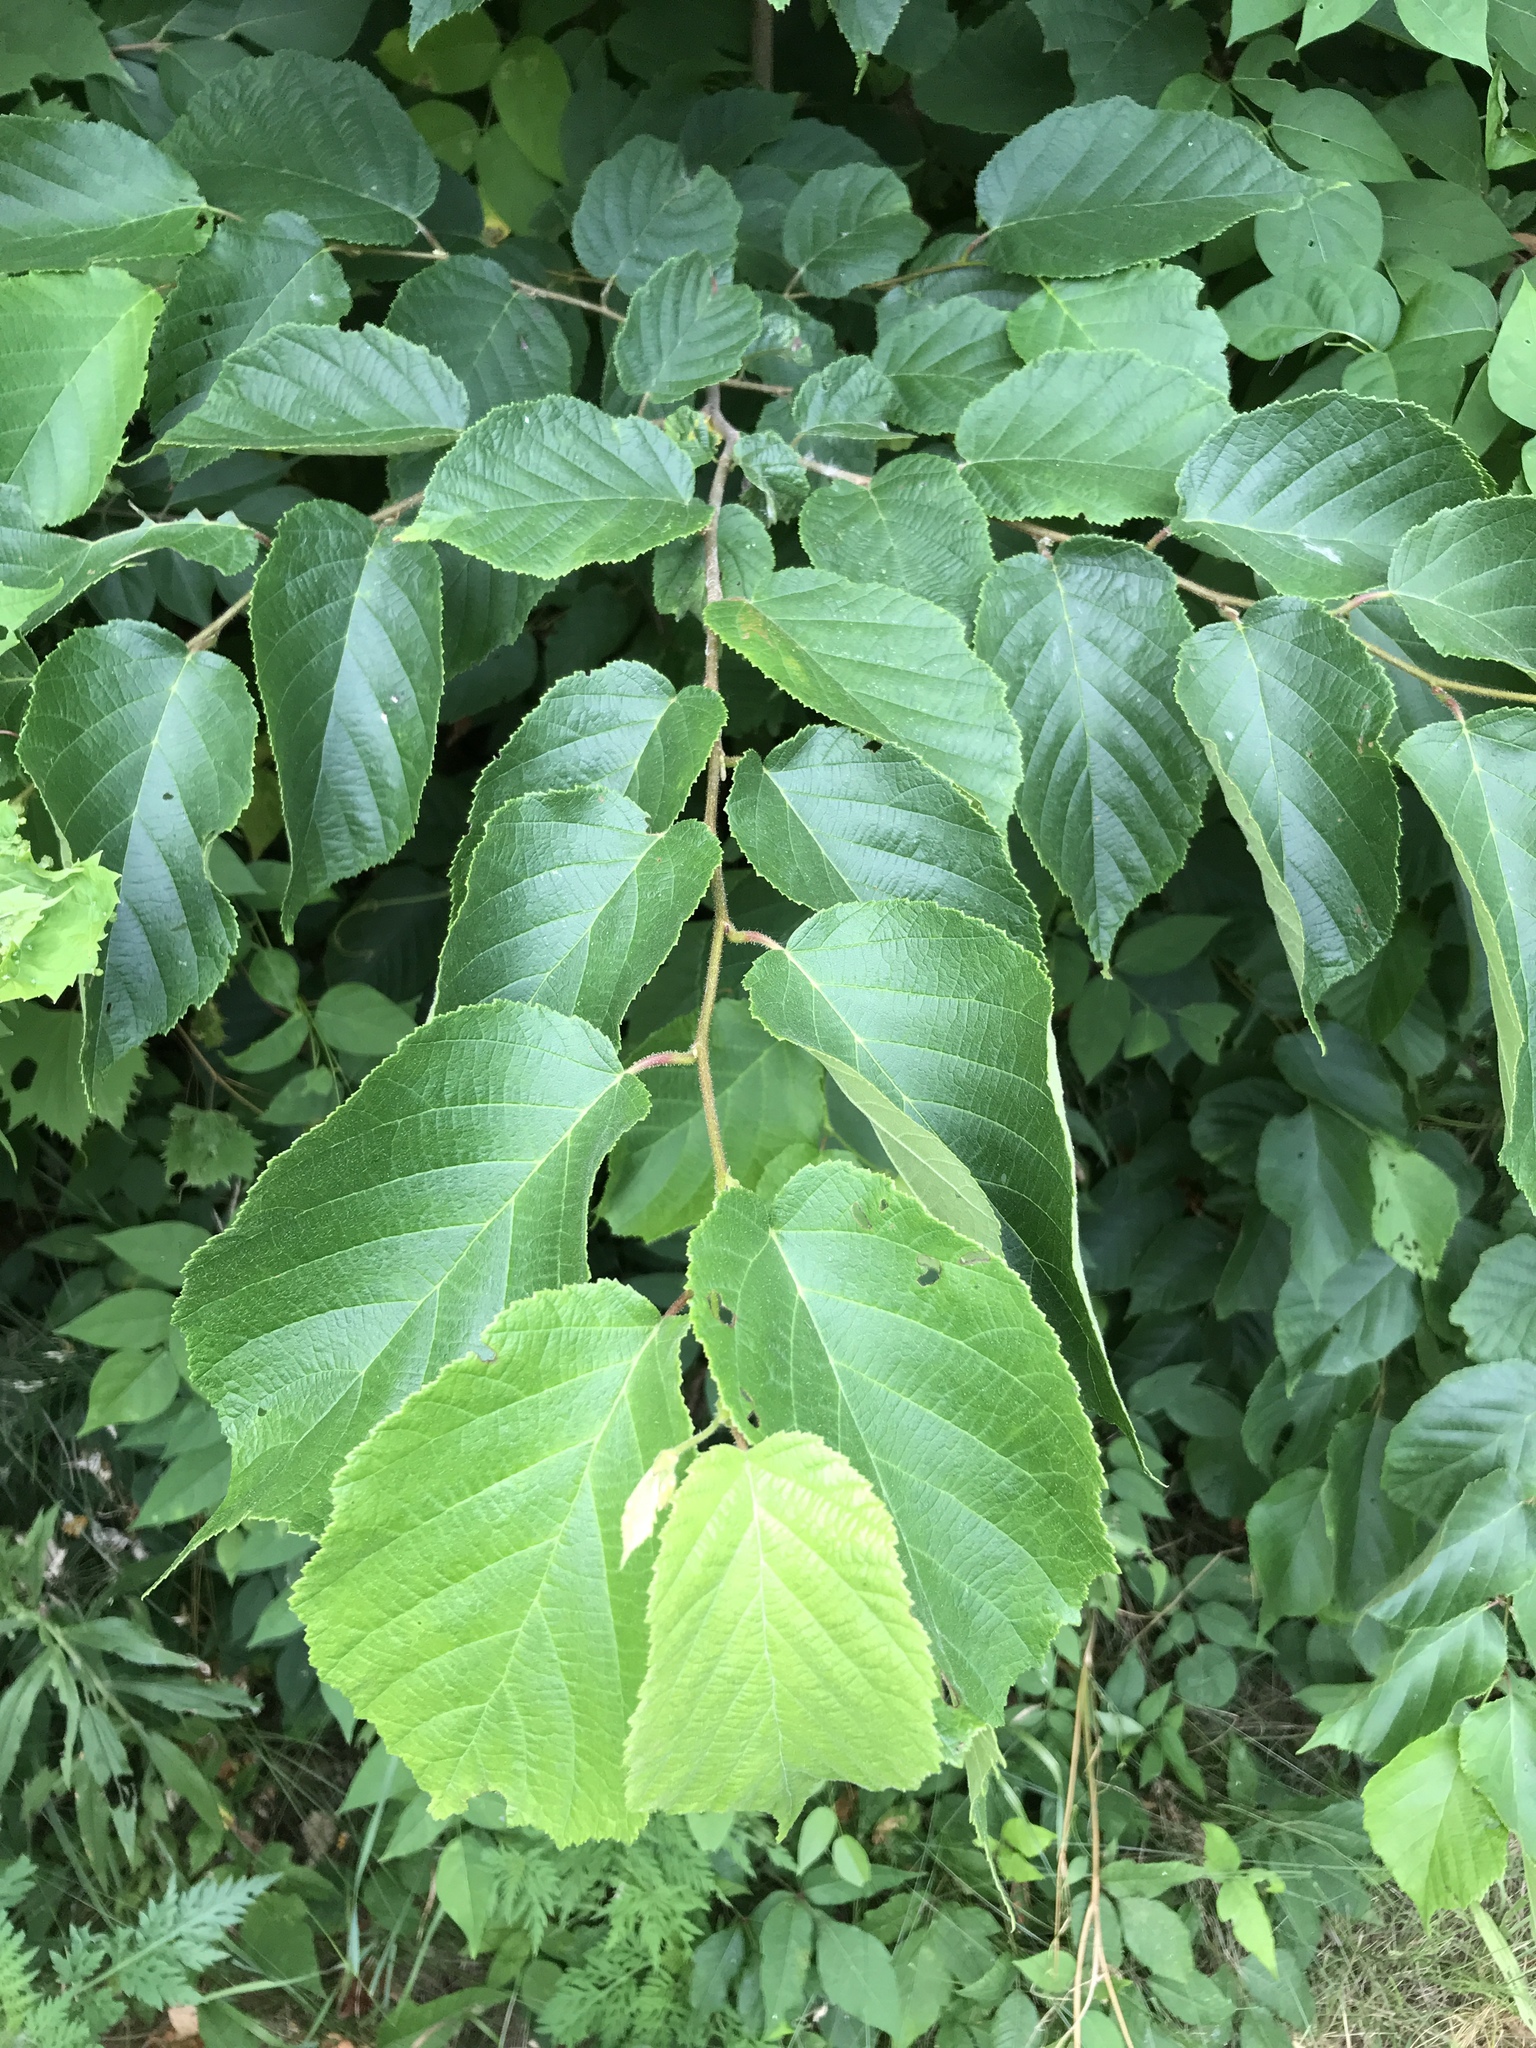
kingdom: Plantae
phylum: Tracheophyta
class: Magnoliopsida
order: Fagales
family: Betulaceae
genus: Corylus
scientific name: Corylus americana
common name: American hazel
